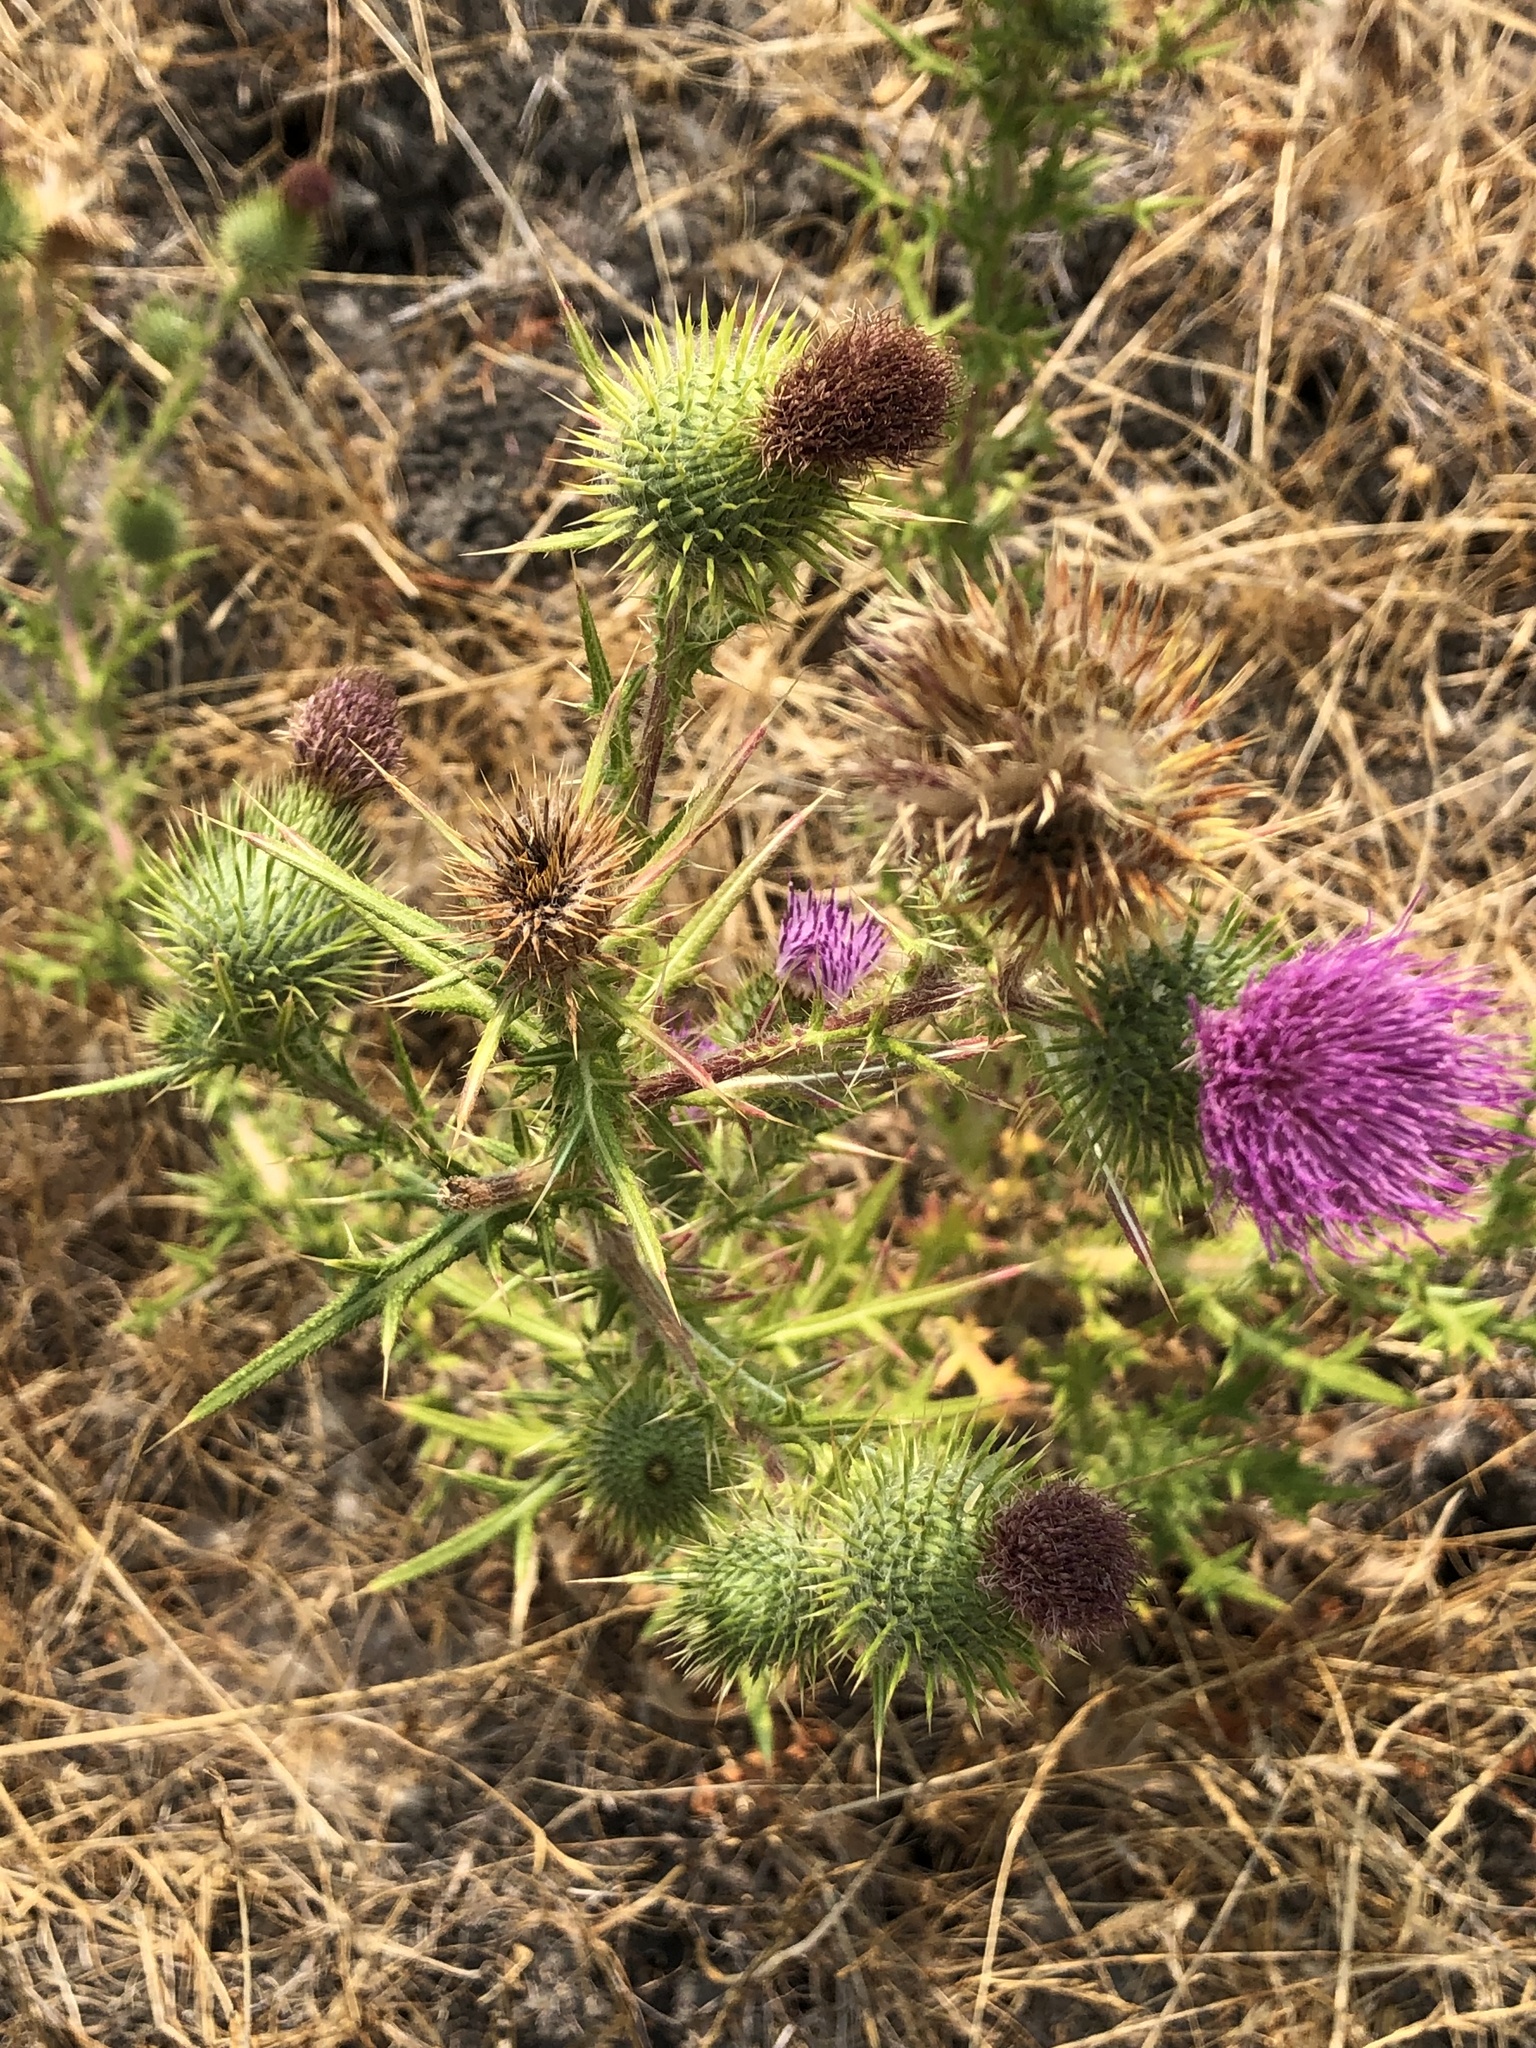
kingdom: Plantae
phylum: Tracheophyta
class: Magnoliopsida
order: Asterales
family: Asteraceae
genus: Cirsium
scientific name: Cirsium vulgare
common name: Bull thistle
